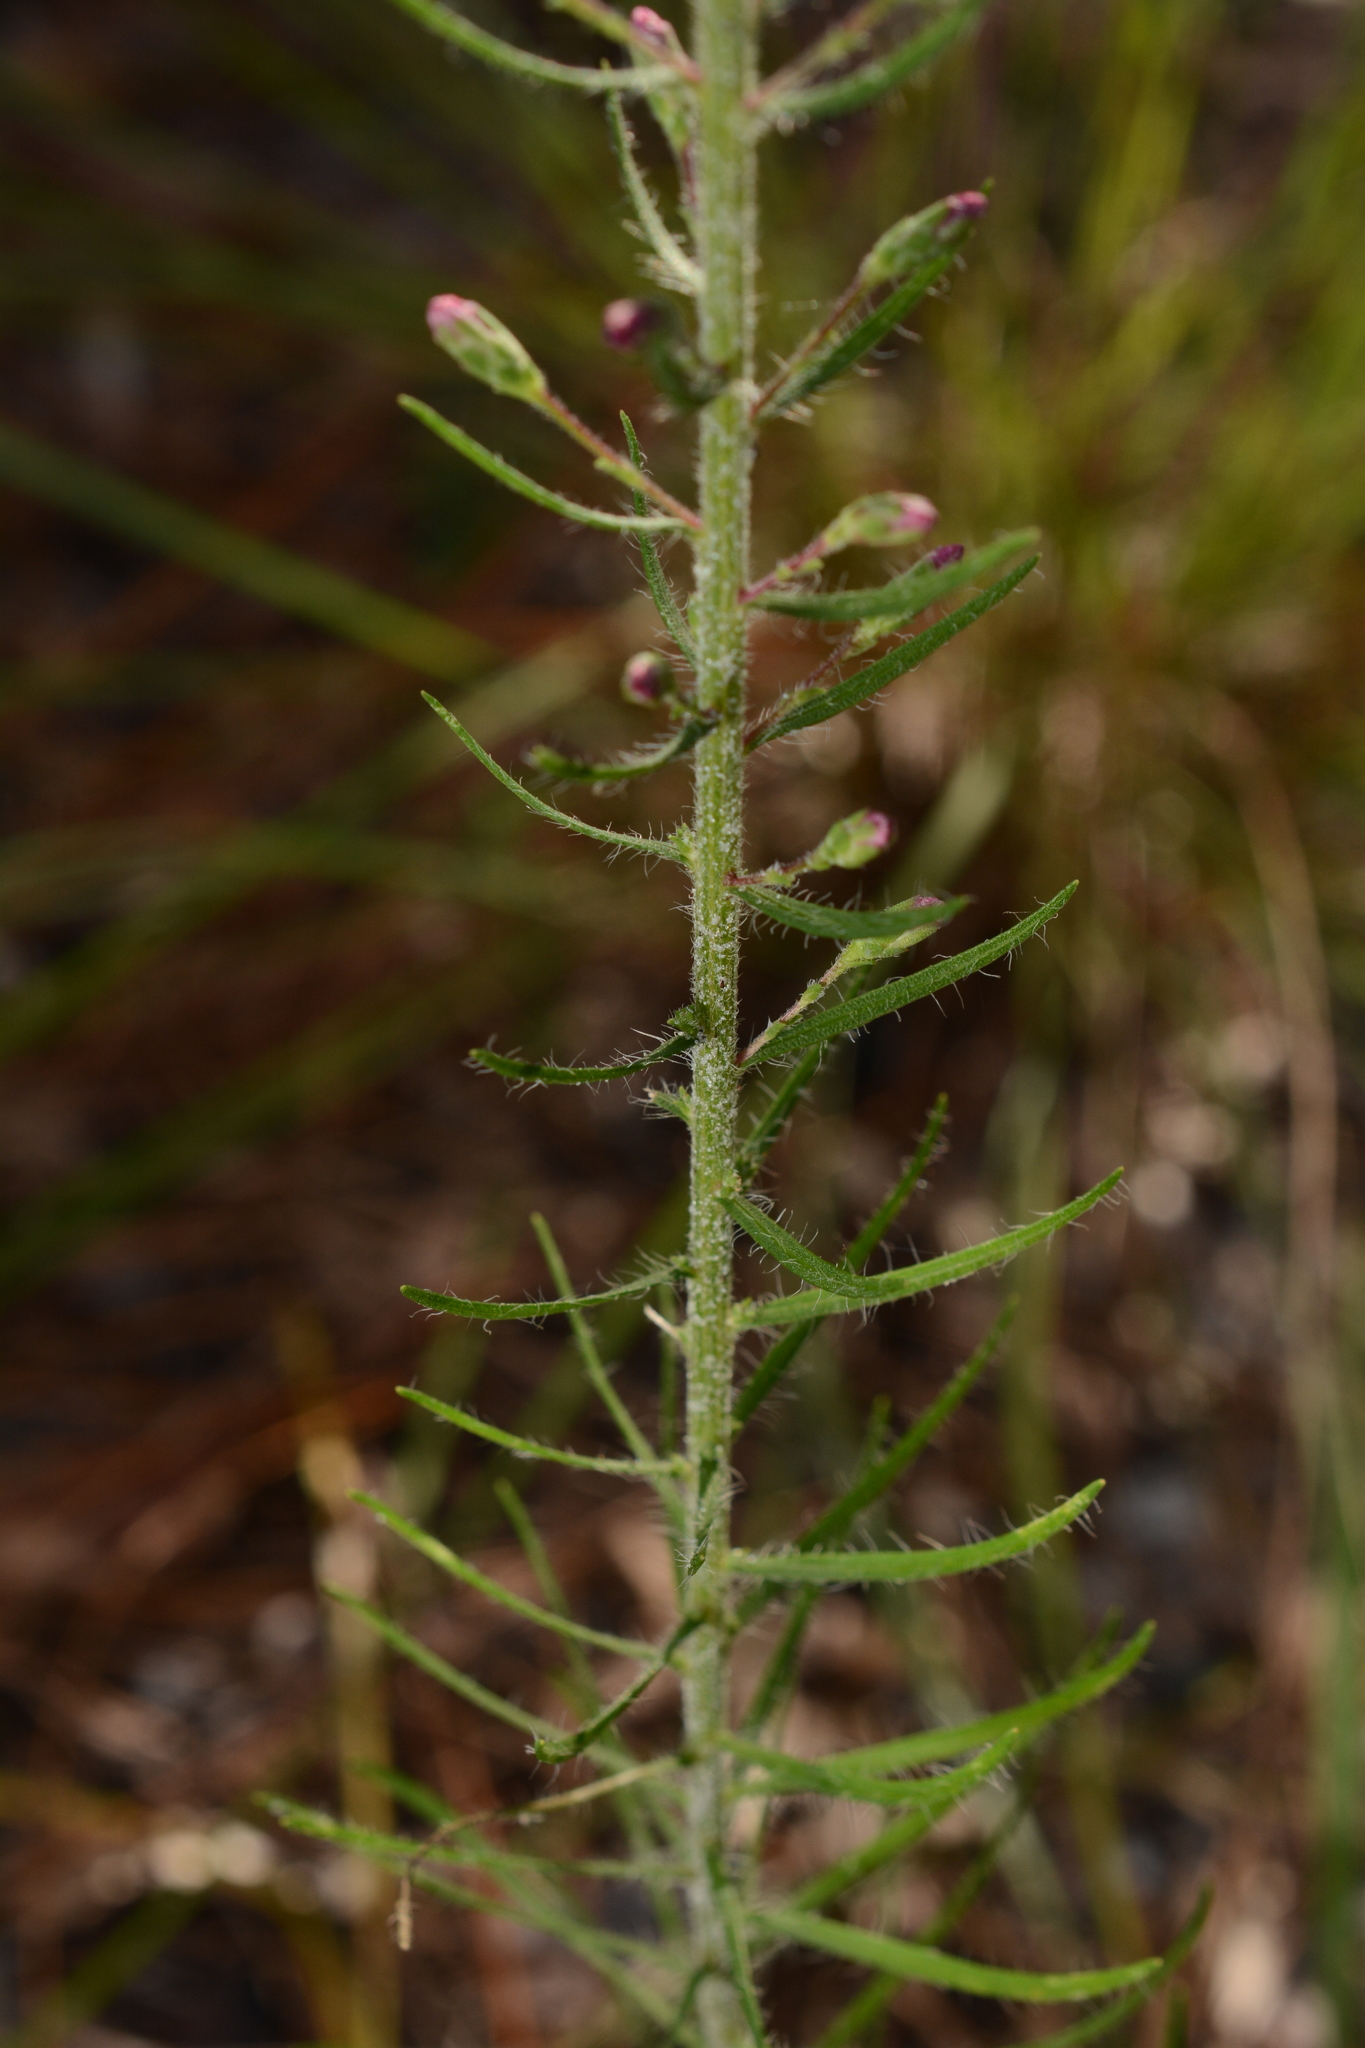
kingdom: Plantae
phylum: Tracheophyta
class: Magnoliopsida
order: Asterales
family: Asteraceae
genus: Liatris
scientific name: Liatris gracilis
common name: Slender gayfeather
